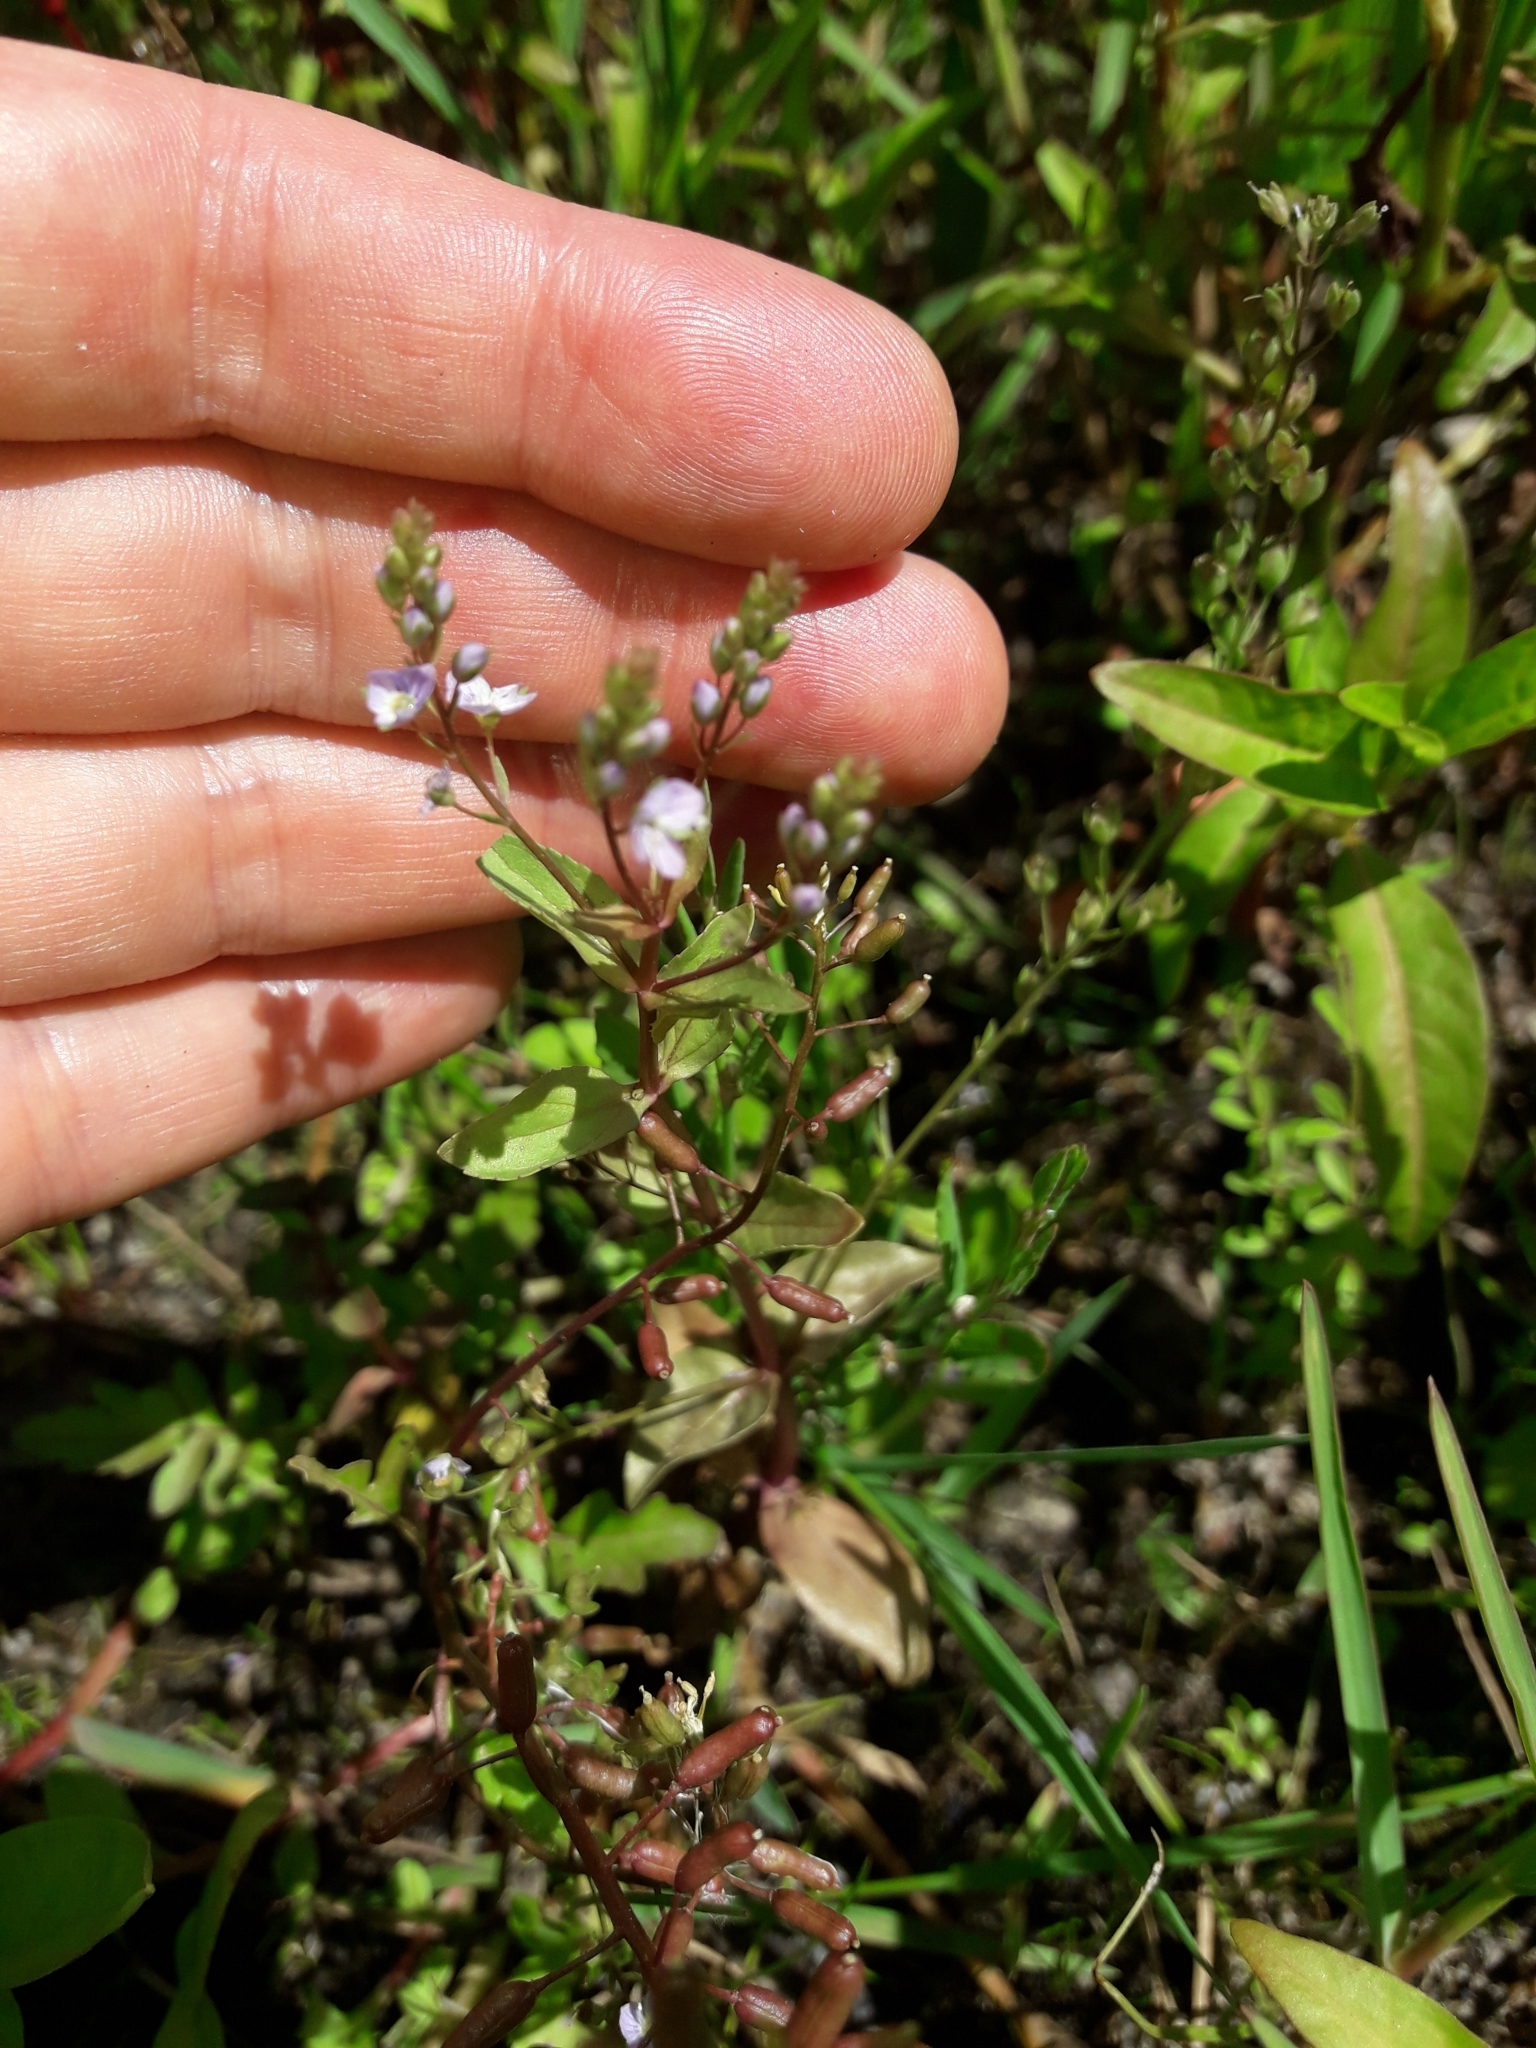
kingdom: Plantae
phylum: Tracheophyta
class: Magnoliopsida
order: Lamiales
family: Plantaginaceae
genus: Veronica
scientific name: Veronica anagallis-aquatica
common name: Water speedwell
